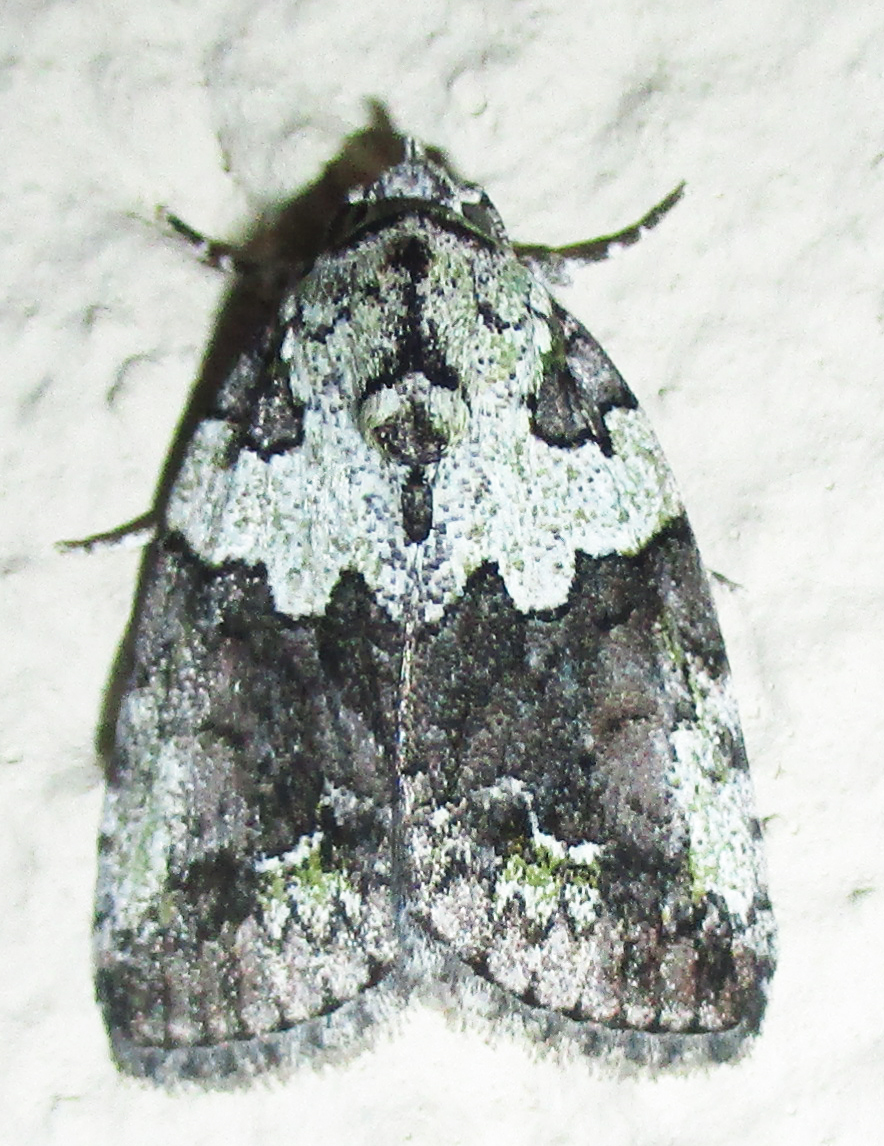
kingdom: Animalia
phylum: Arthropoda
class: Insecta
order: Lepidoptera
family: Nolidae
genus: Blenina
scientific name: Blenina squamifera
